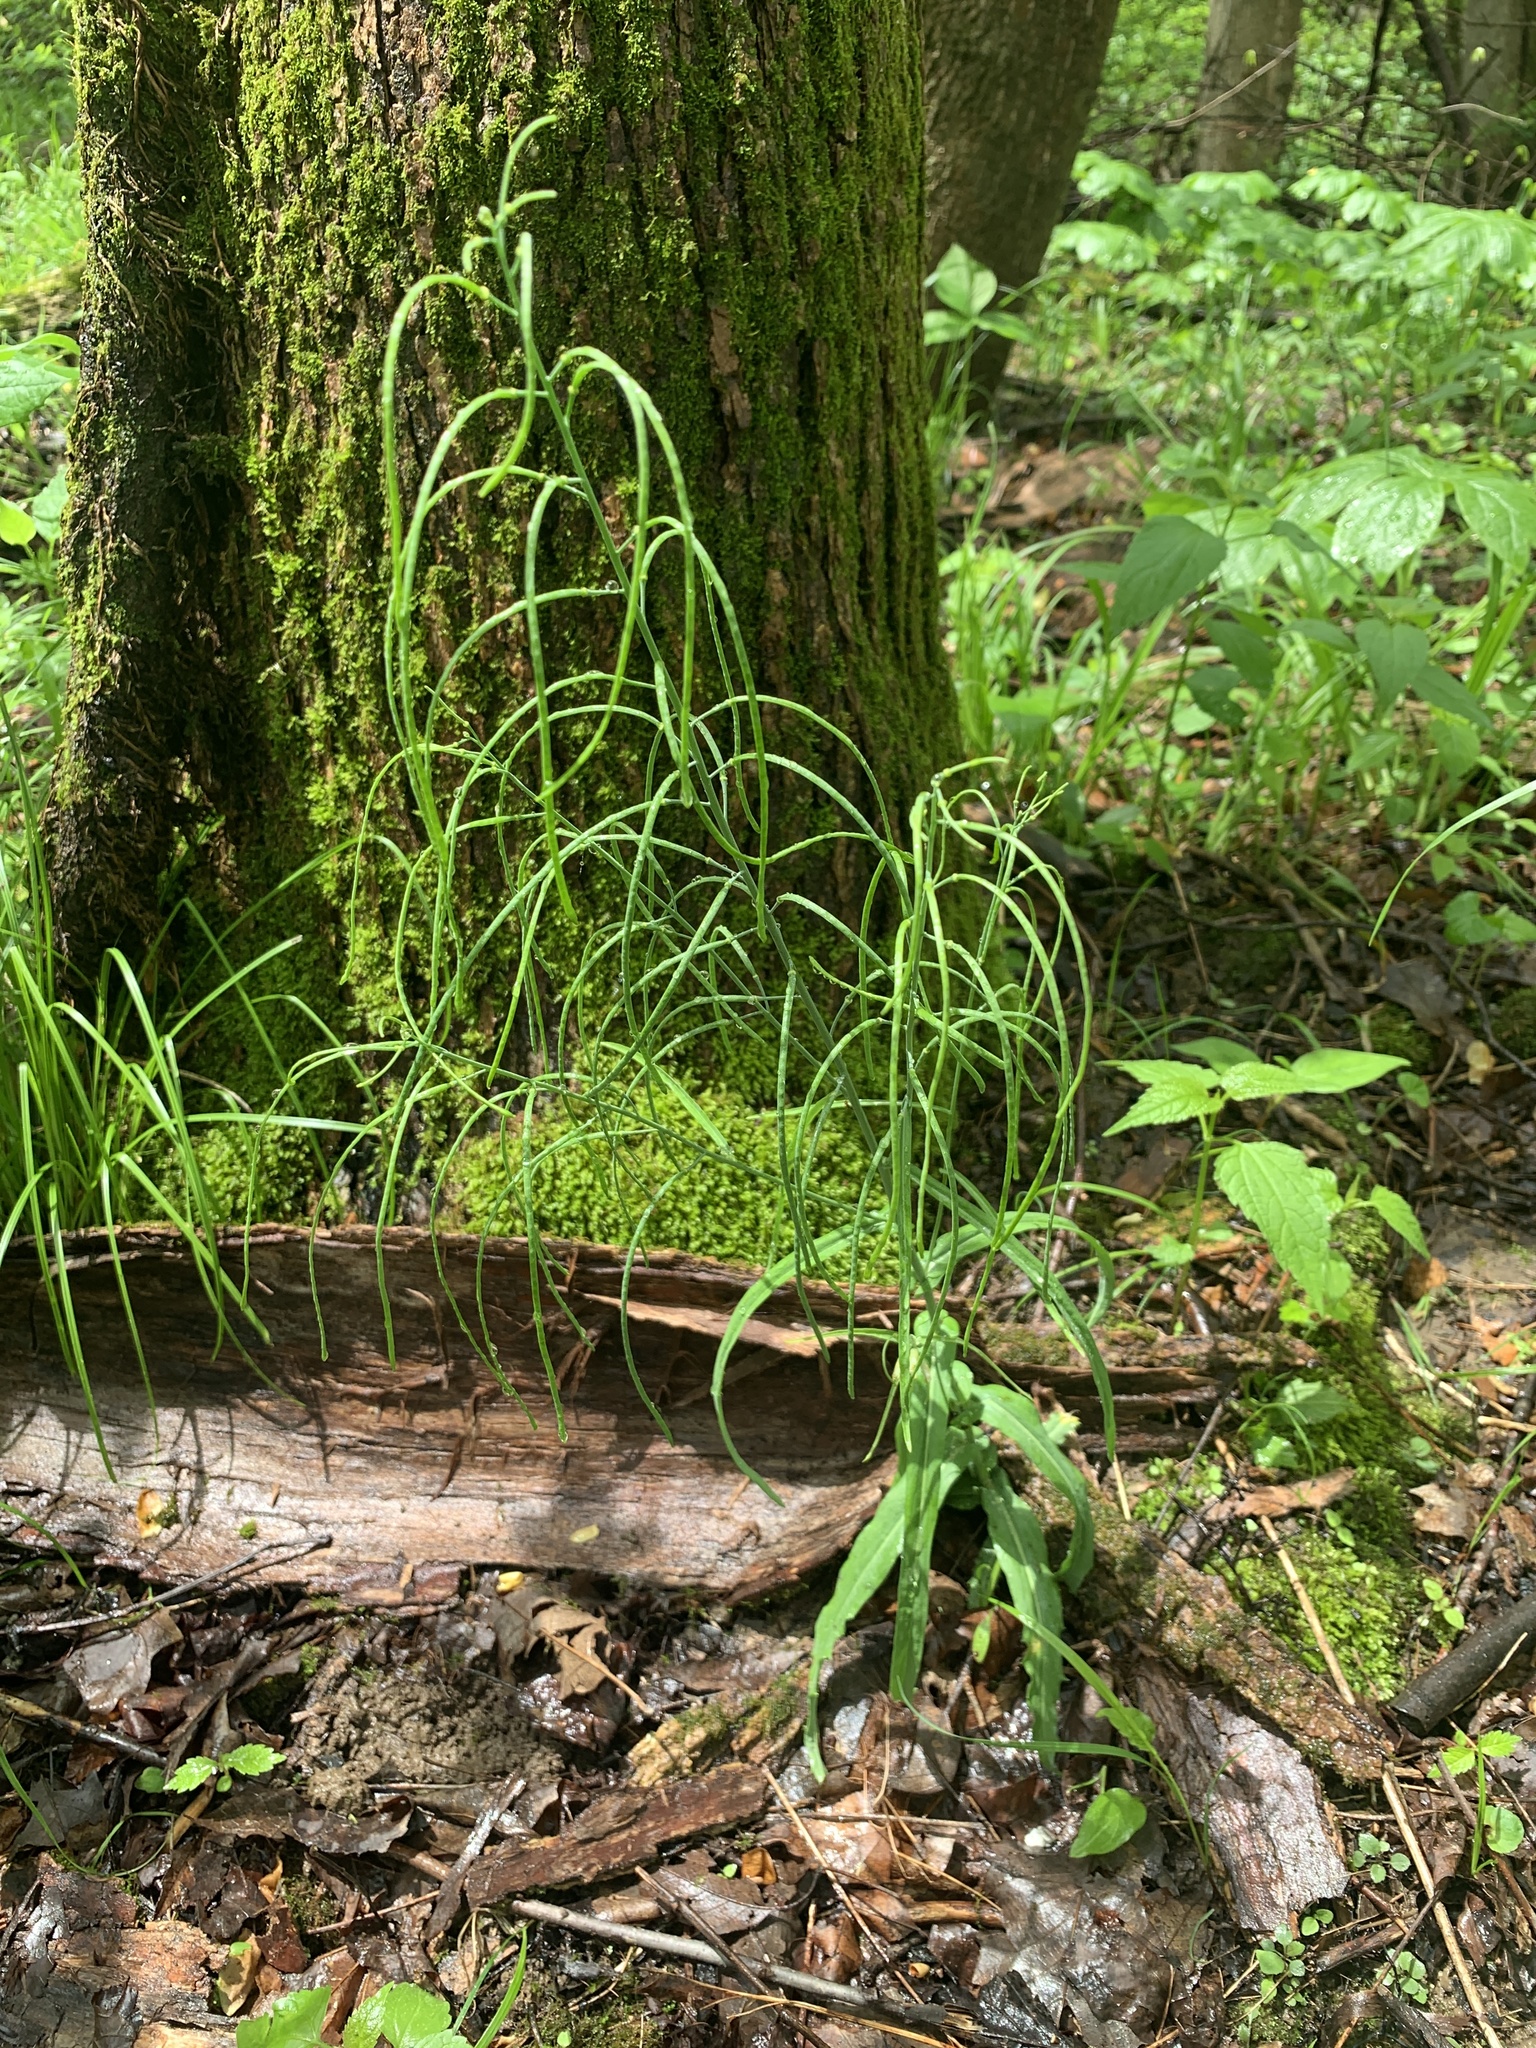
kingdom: Plantae
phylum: Tracheophyta
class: Magnoliopsida
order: Brassicales
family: Brassicaceae
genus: Borodinia
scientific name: Borodinia laevigata
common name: Smooth rockcress
